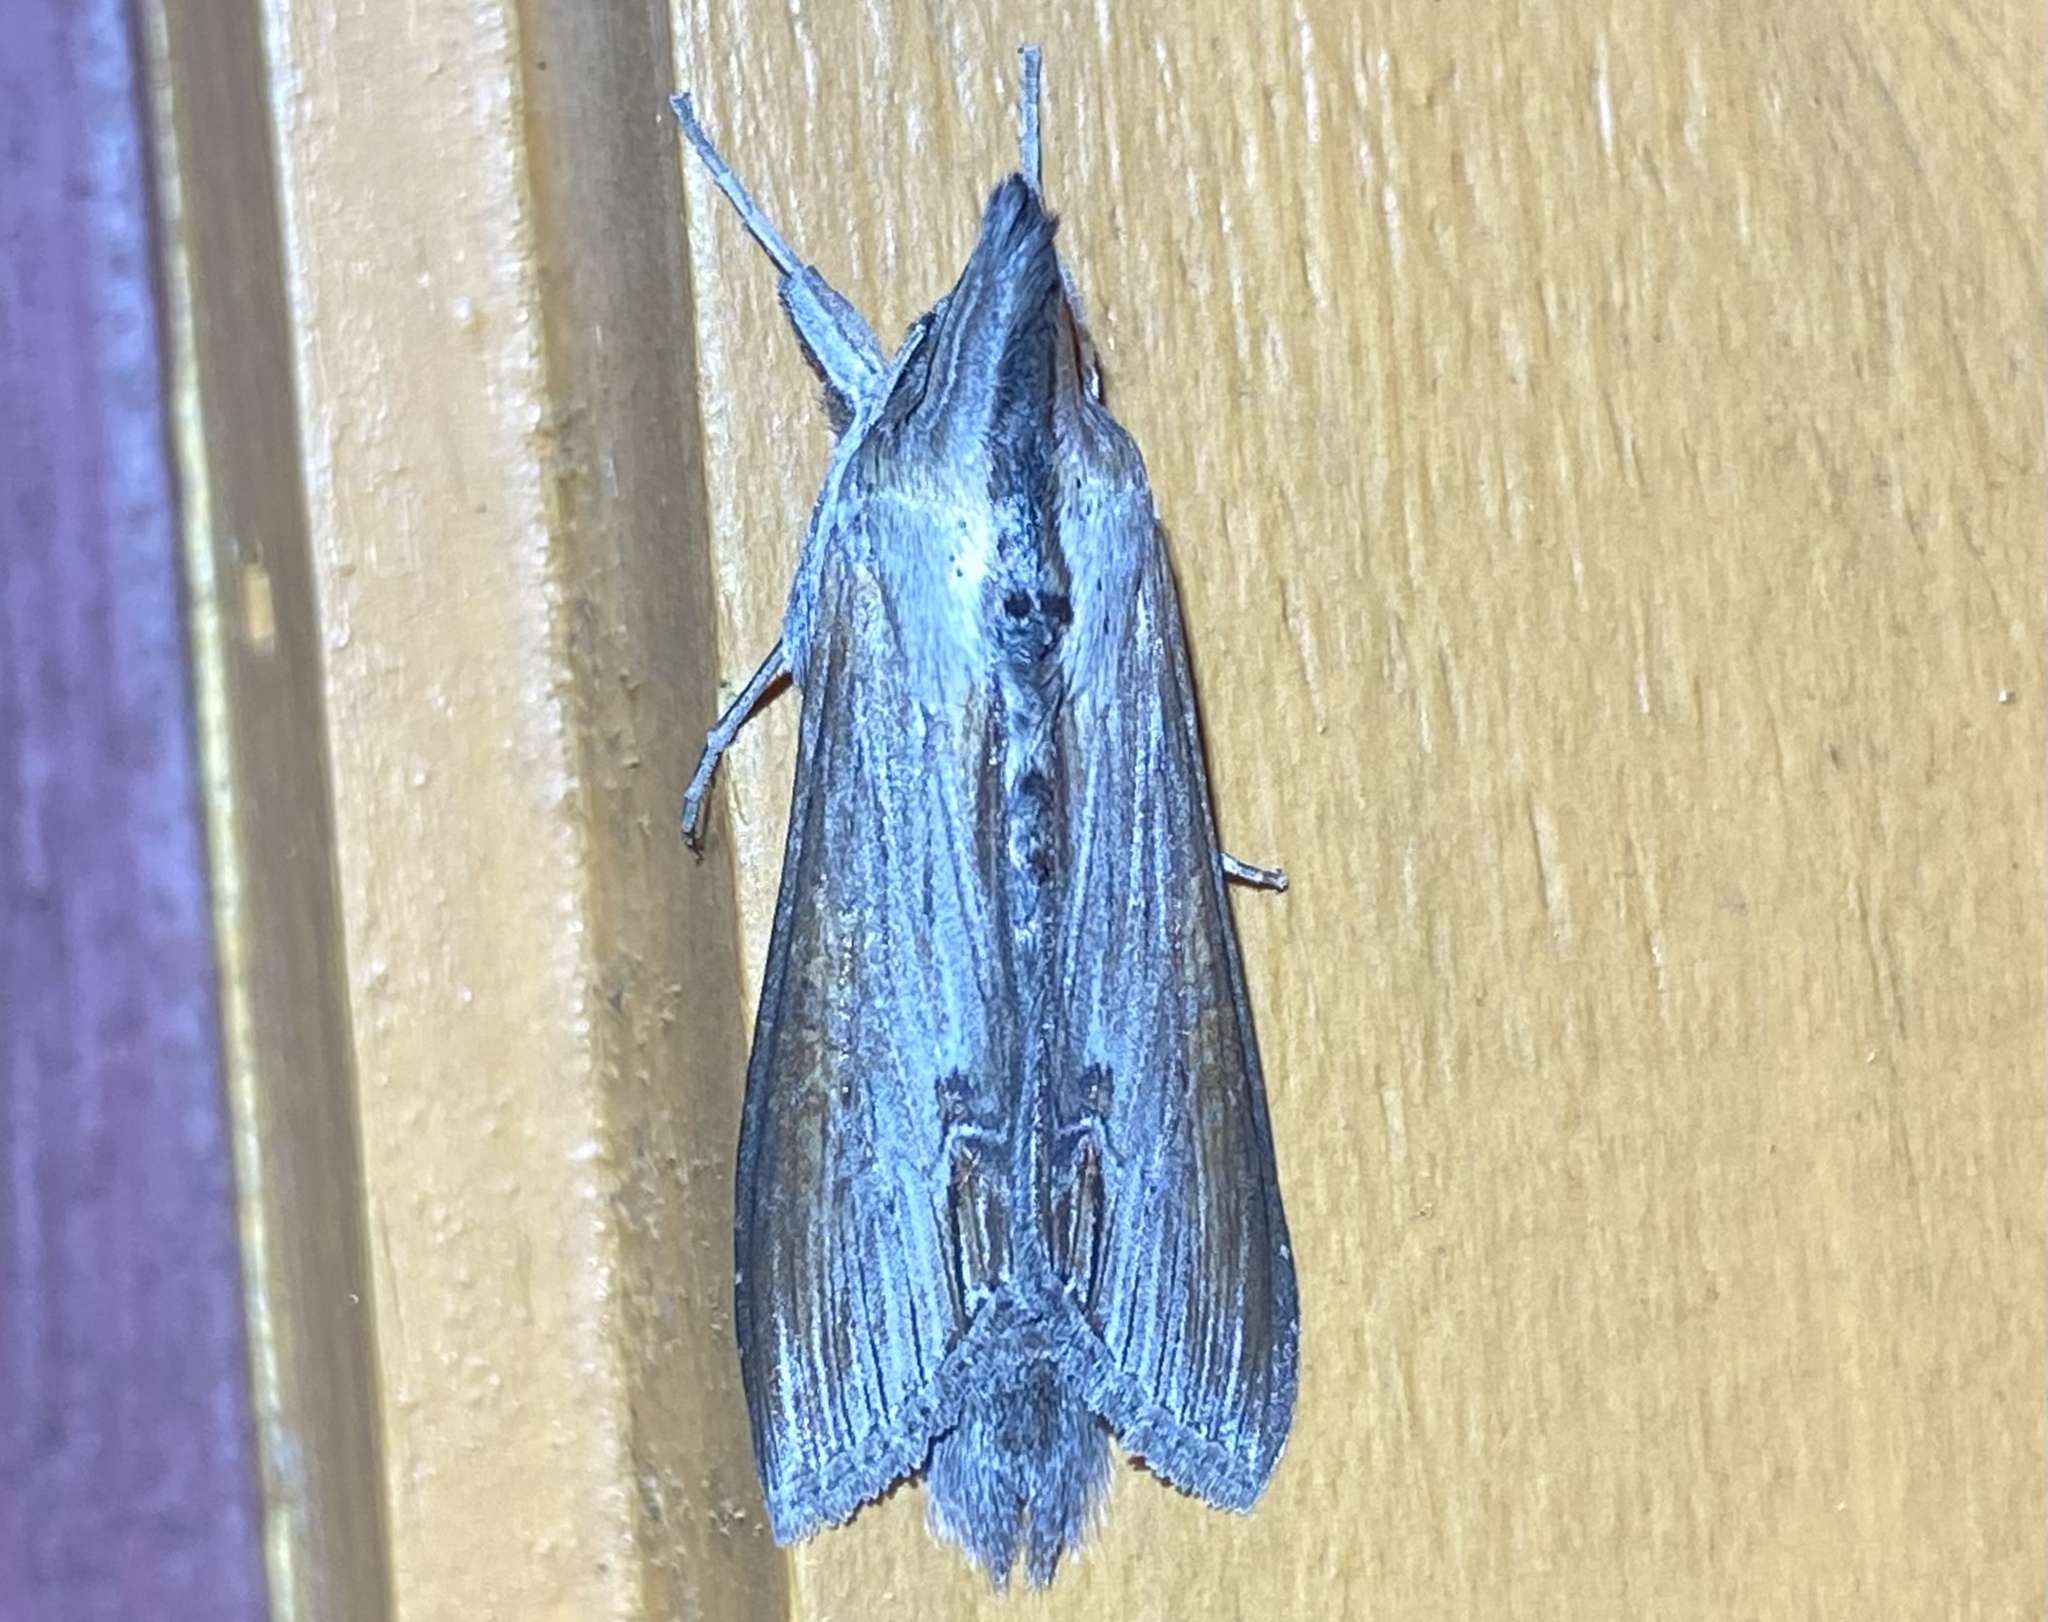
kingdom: Animalia
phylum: Arthropoda
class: Insecta
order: Lepidoptera
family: Noctuidae
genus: Cucullia
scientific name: Cucullia asteroides
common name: Asteroid moth
